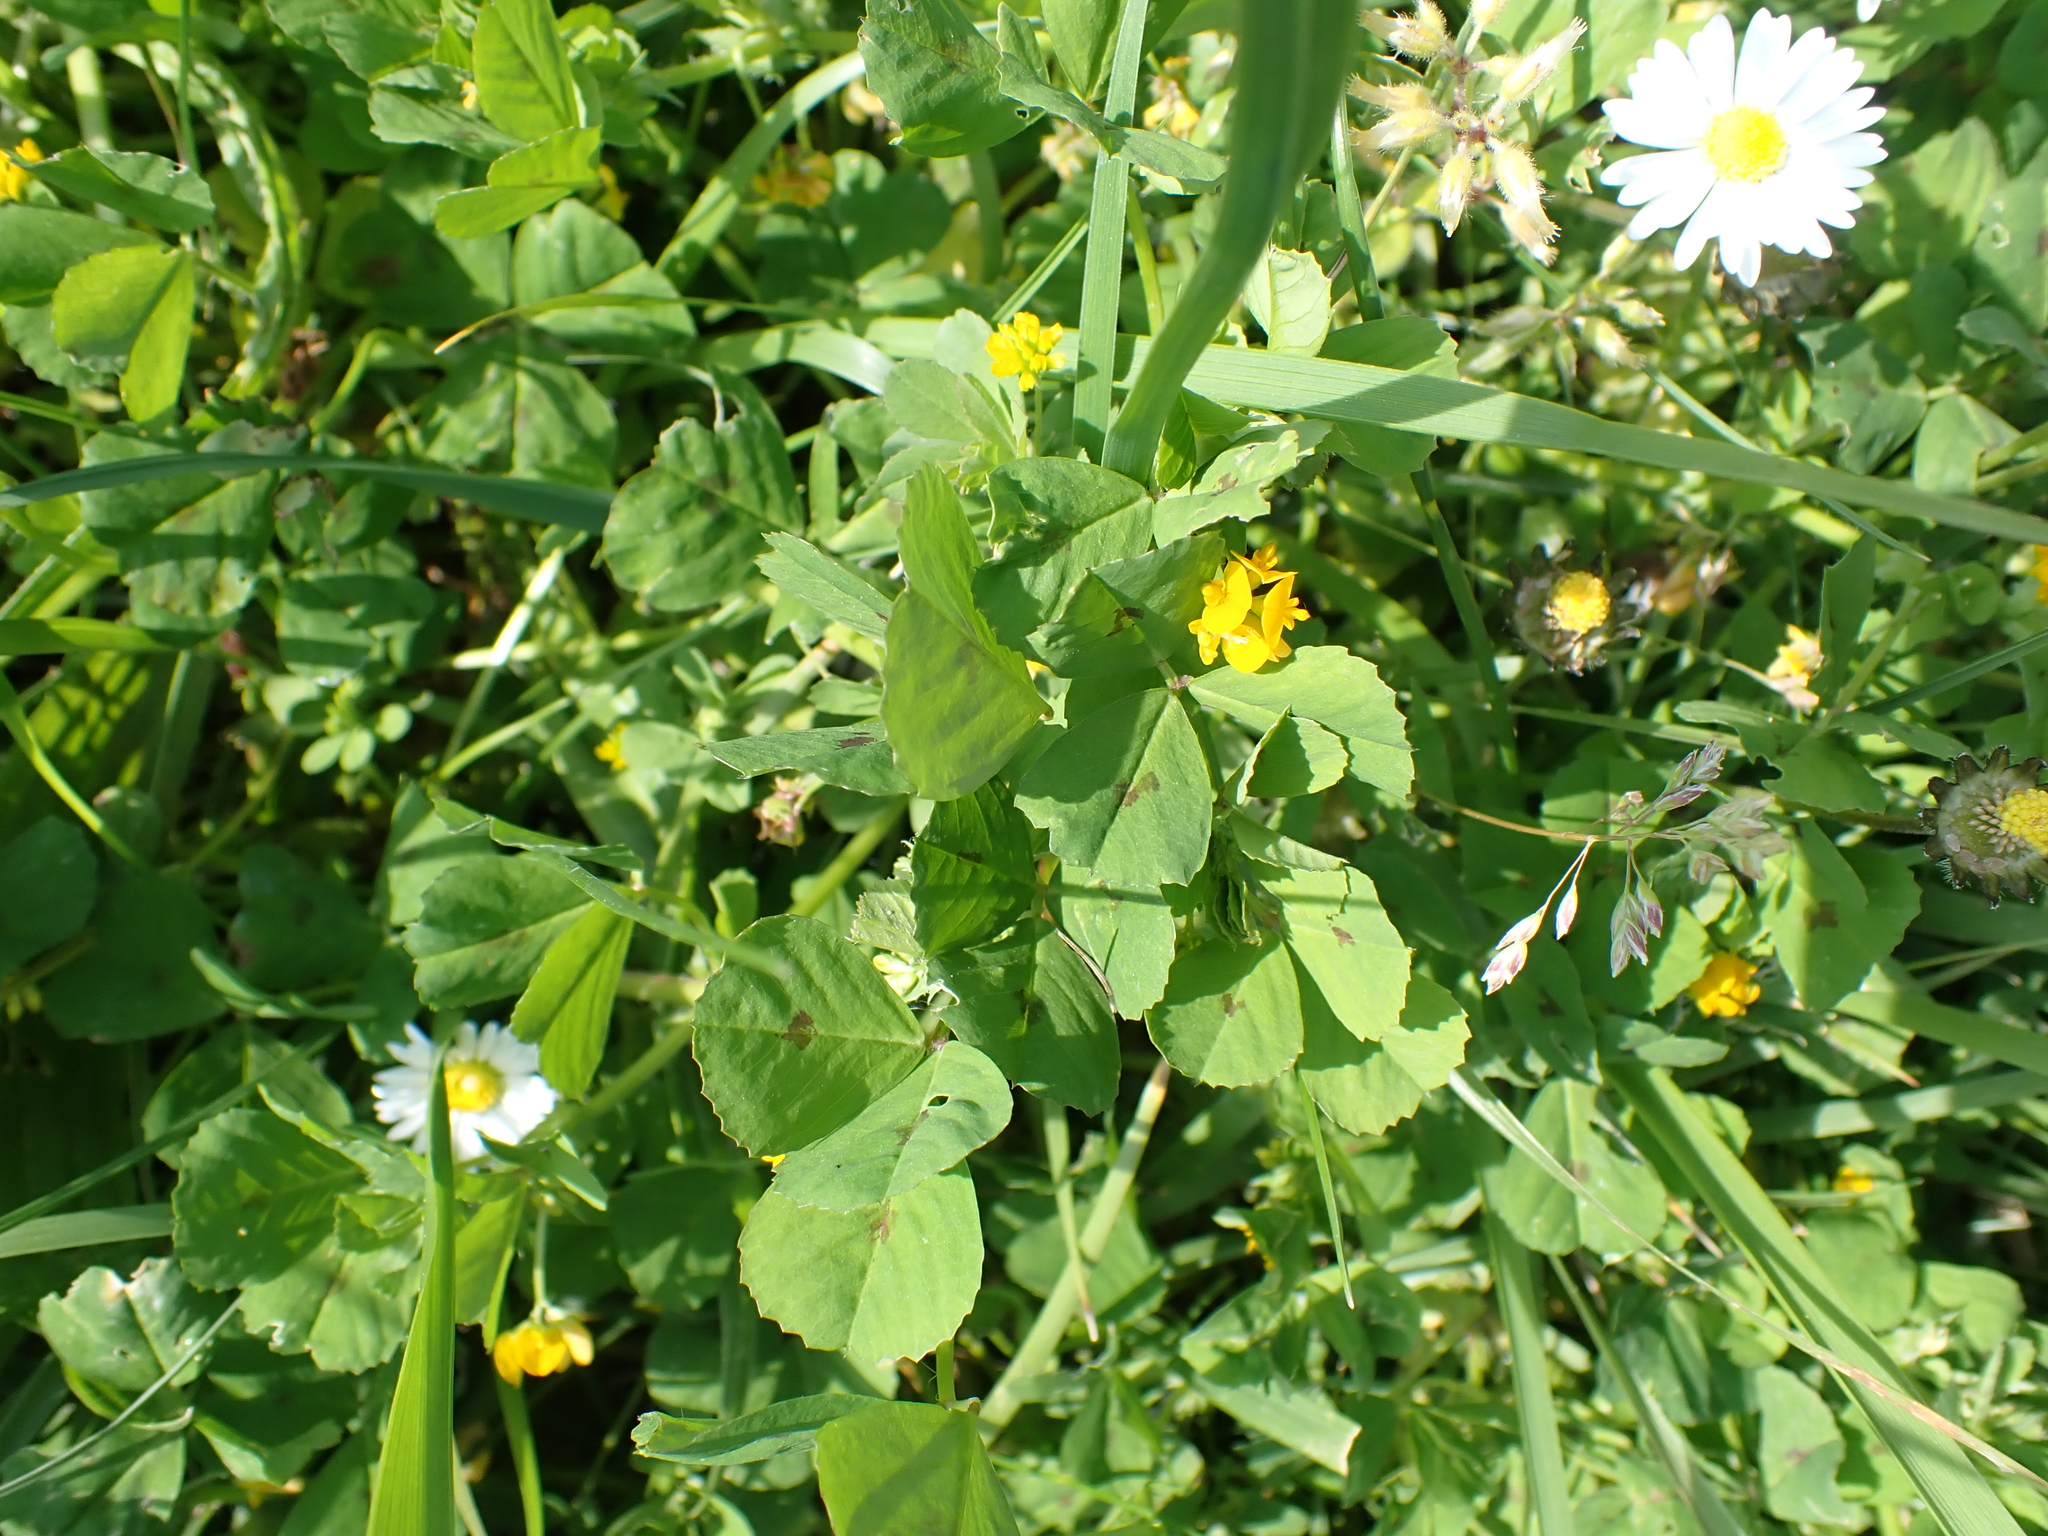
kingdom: Plantae
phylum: Tracheophyta
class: Magnoliopsida
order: Fabales
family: Fabaceae
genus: Medicago
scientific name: Medicago arabica
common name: Spotted medick
